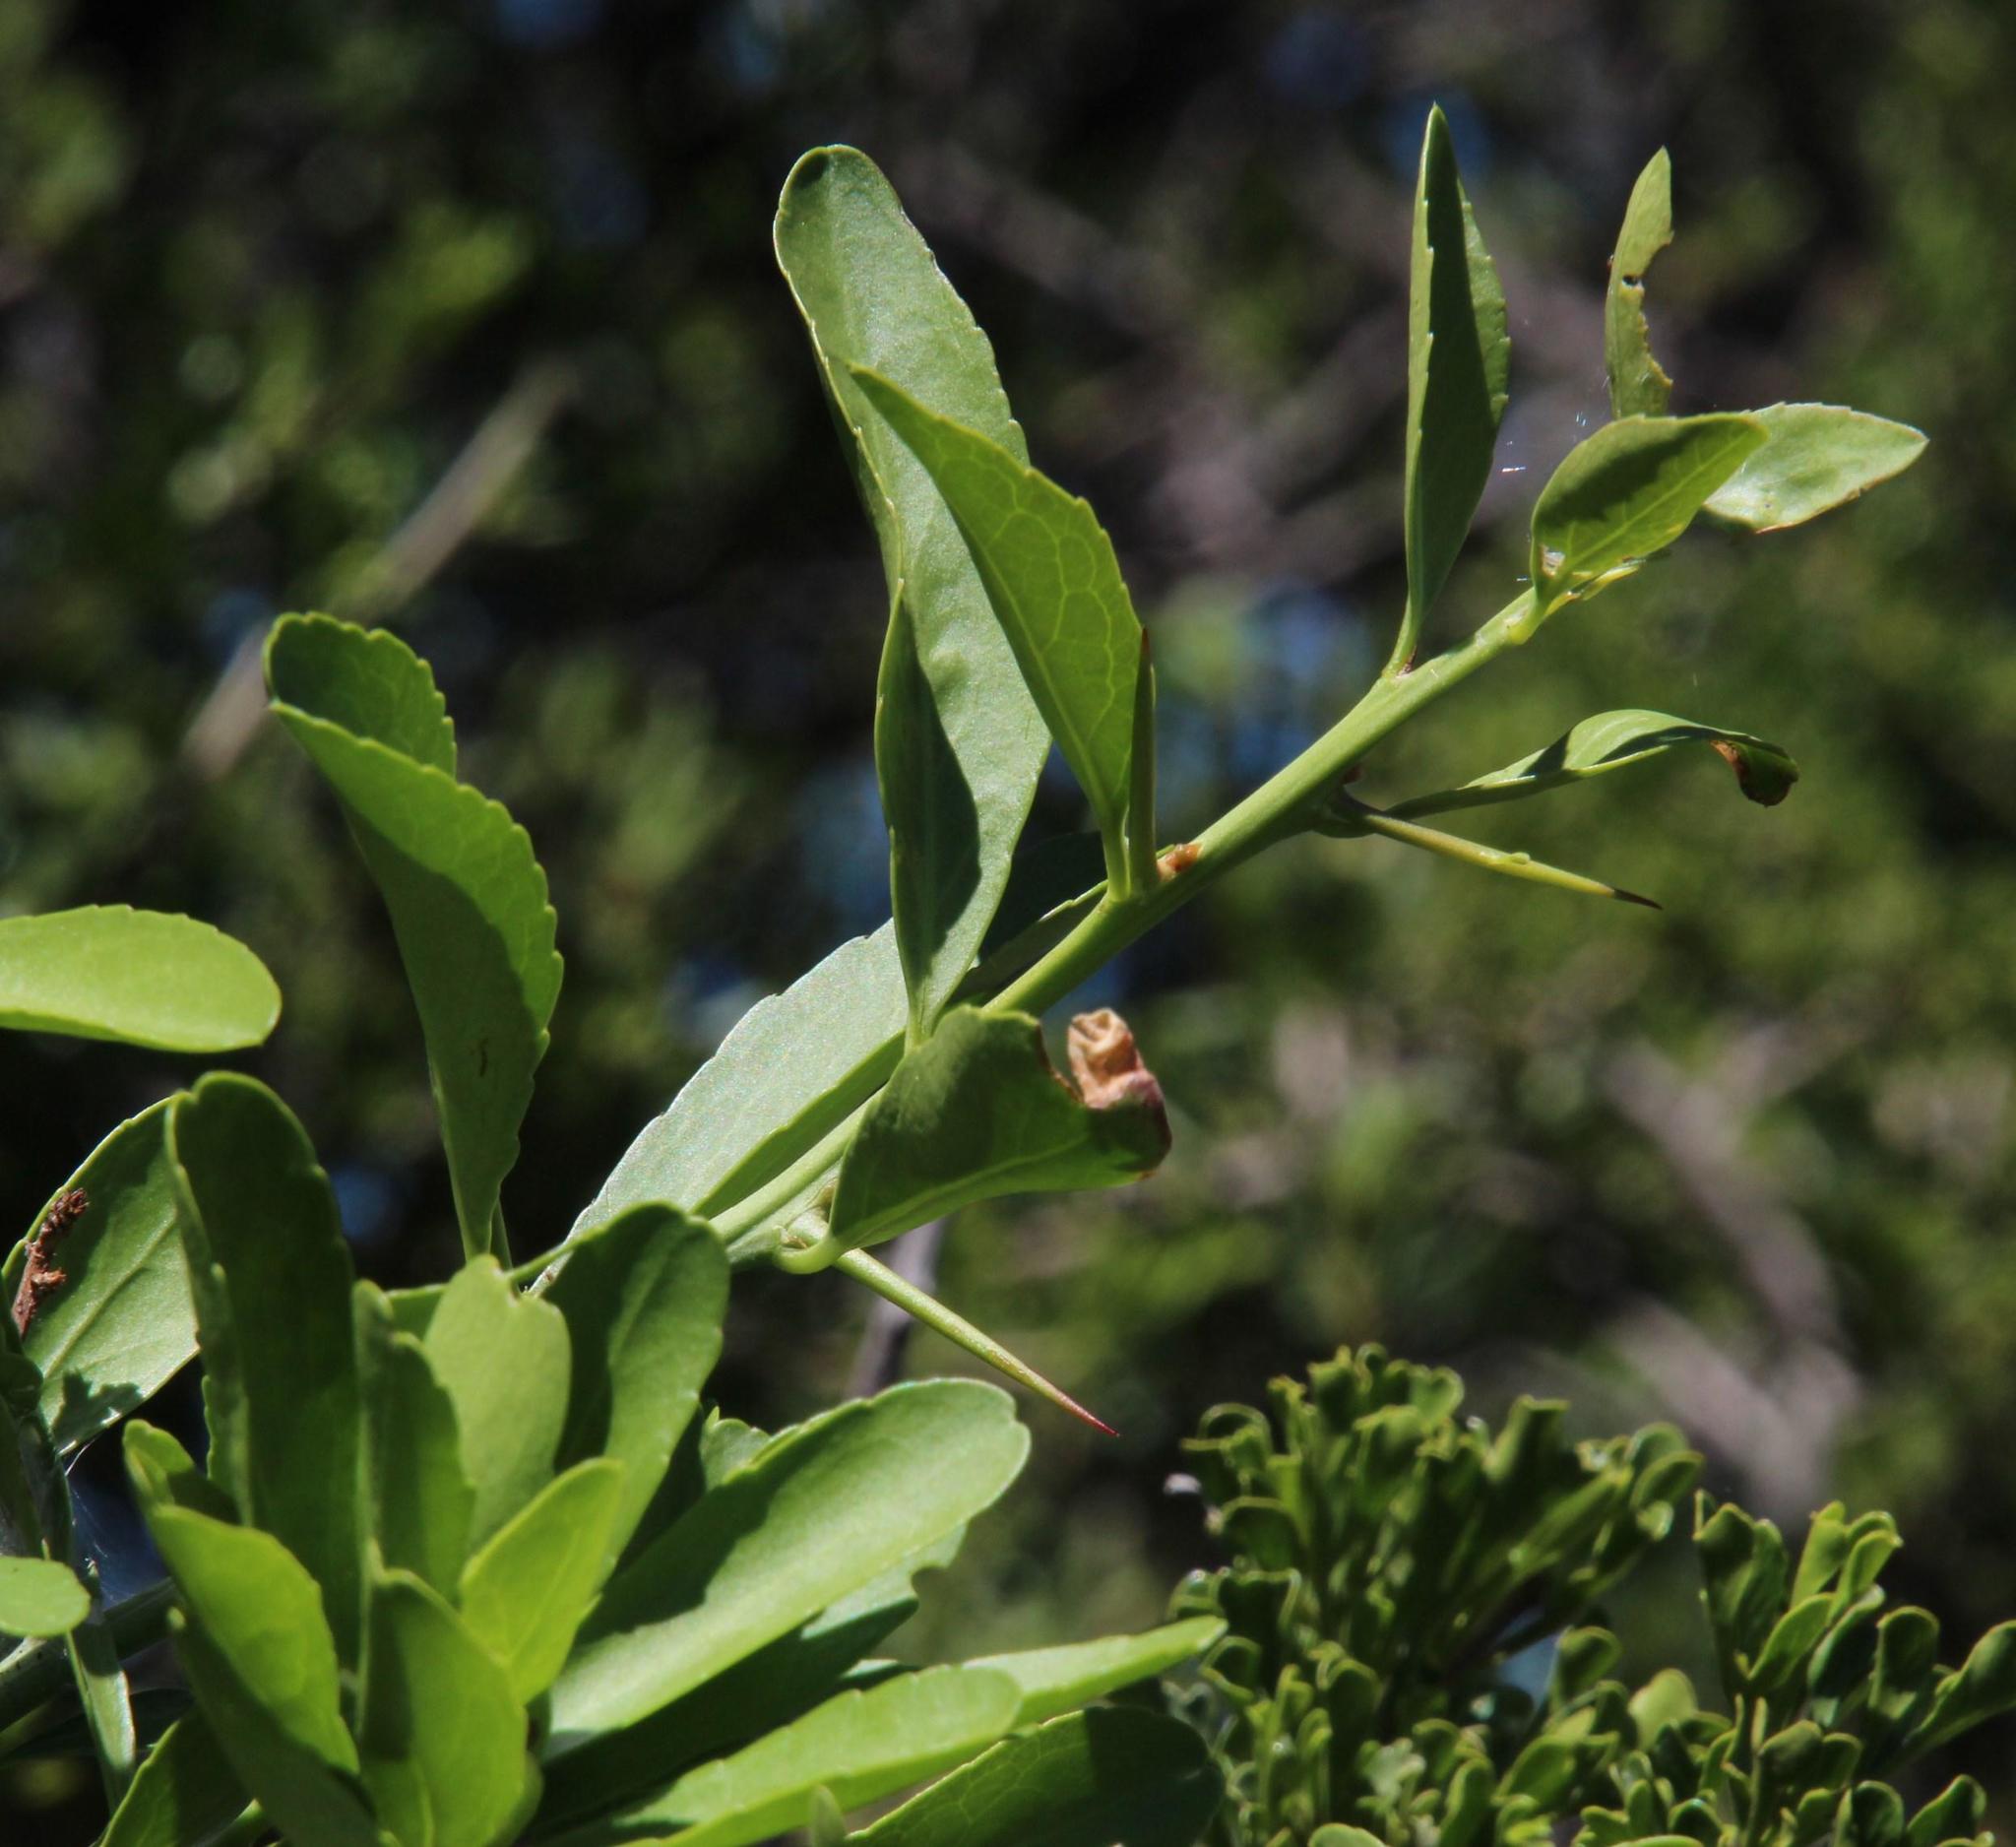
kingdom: Plantae
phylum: Tracheophyta
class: Magnoliopsida
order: Celastrales
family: Celastraceae
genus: Gymnosporia
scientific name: Gymnosporia buxifolia
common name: Common spike-thorn
